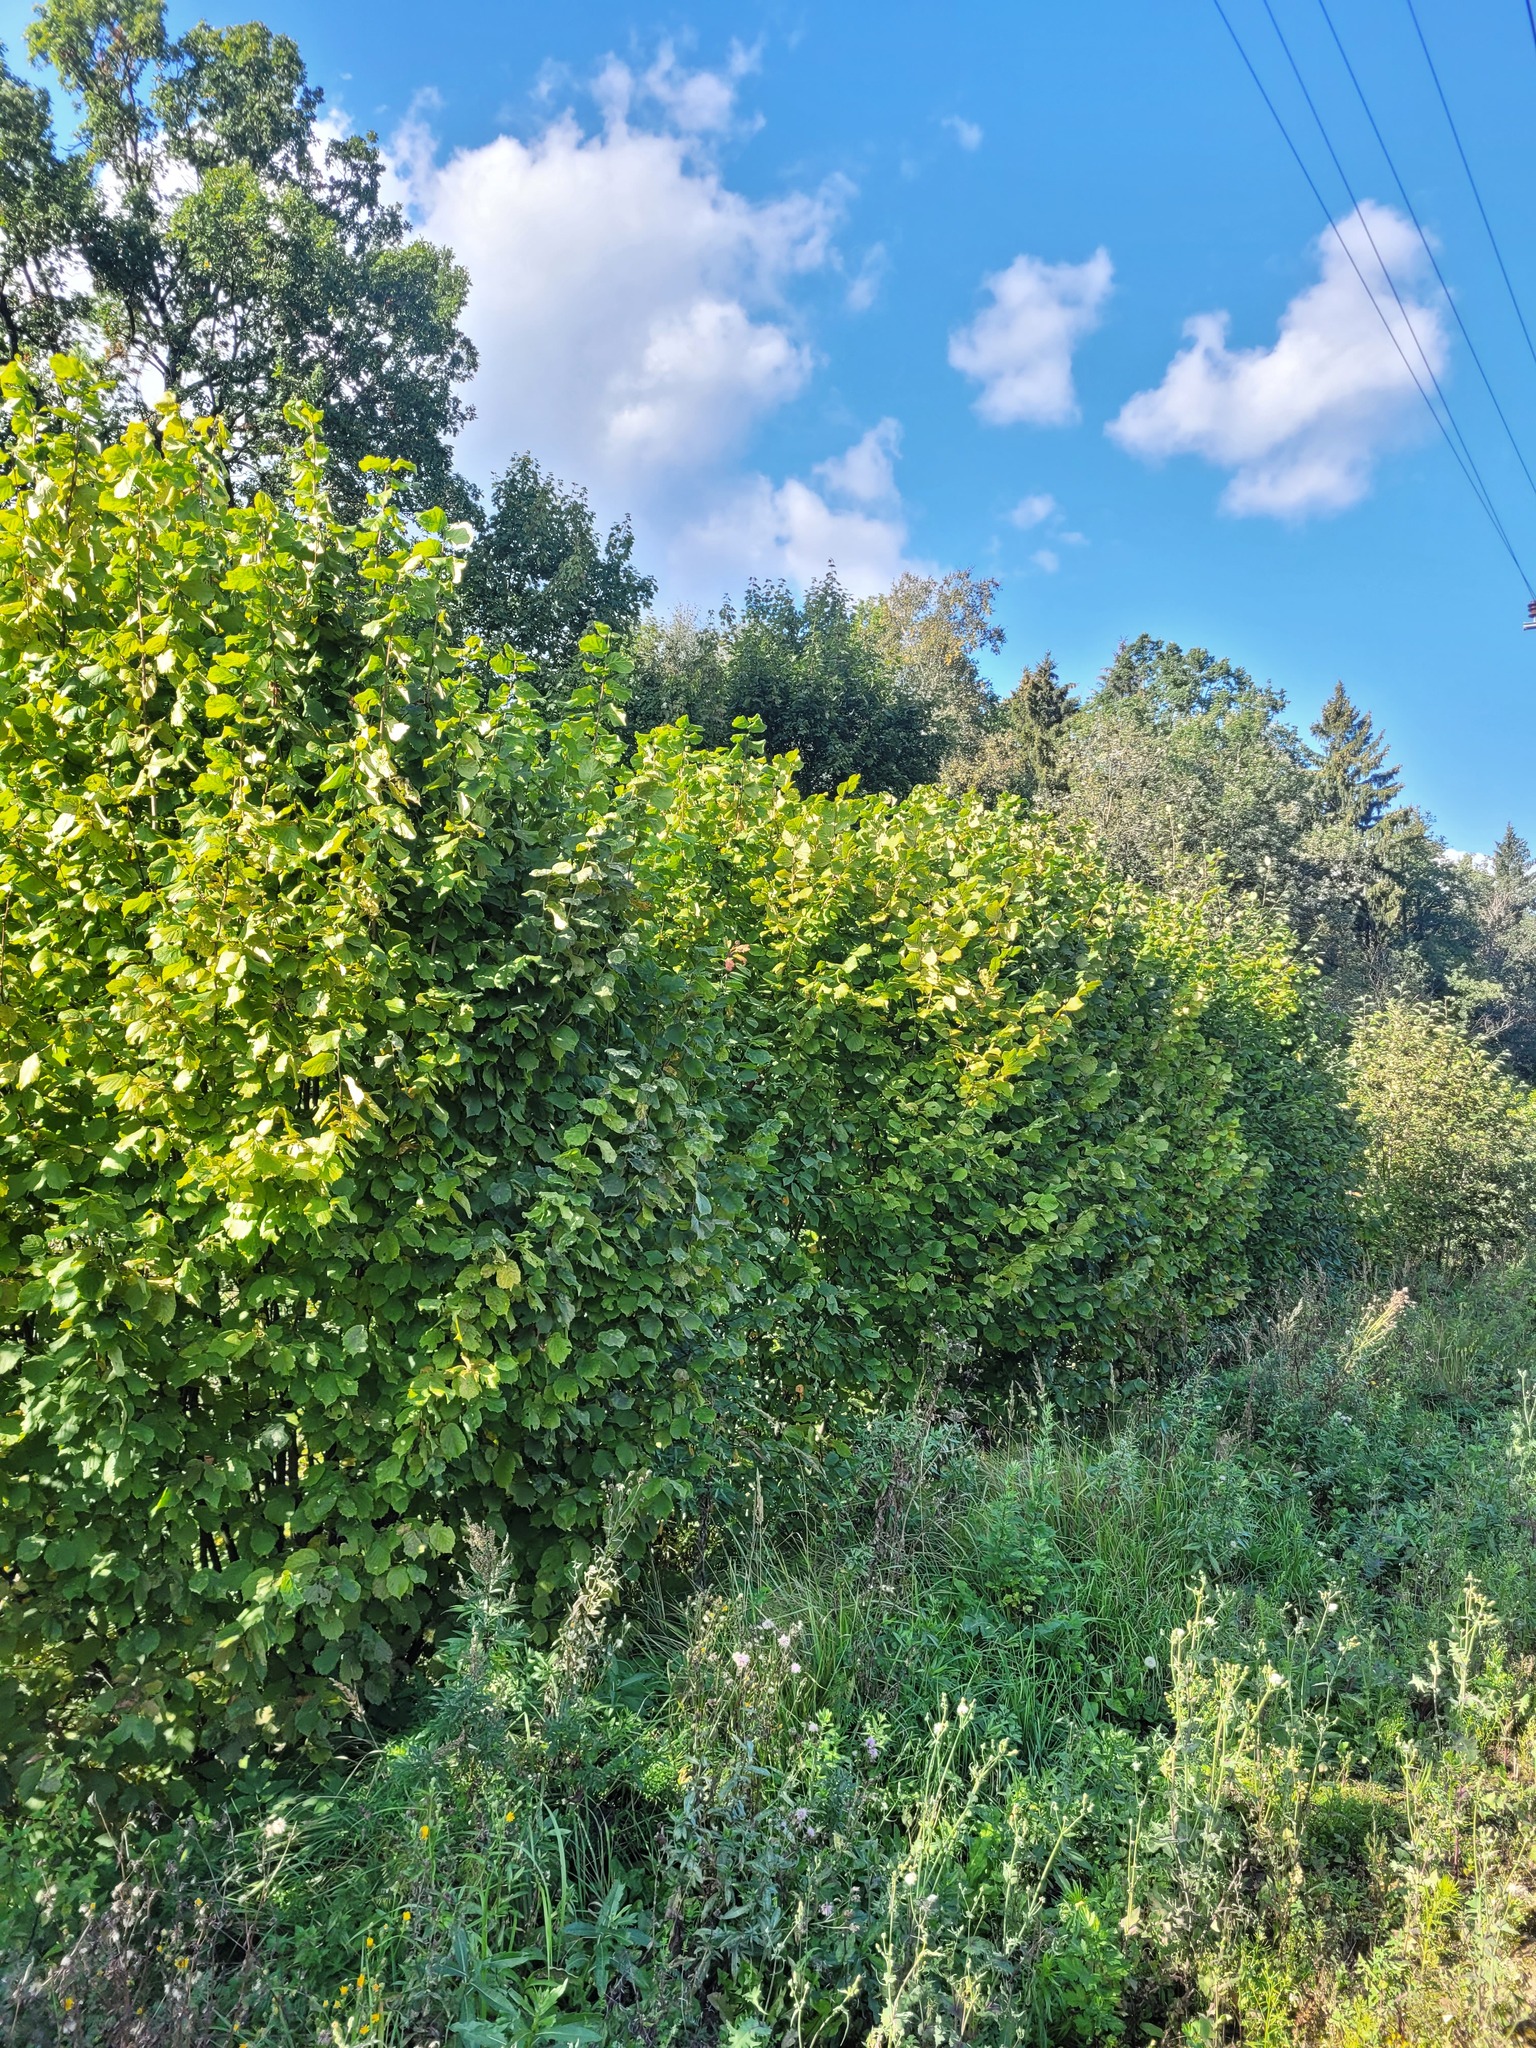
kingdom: Plantae
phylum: Tracheophyta
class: Magnoliopsida
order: Fagales
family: Betulaceae
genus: Corylus
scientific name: Corylus avellana
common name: European hazel
